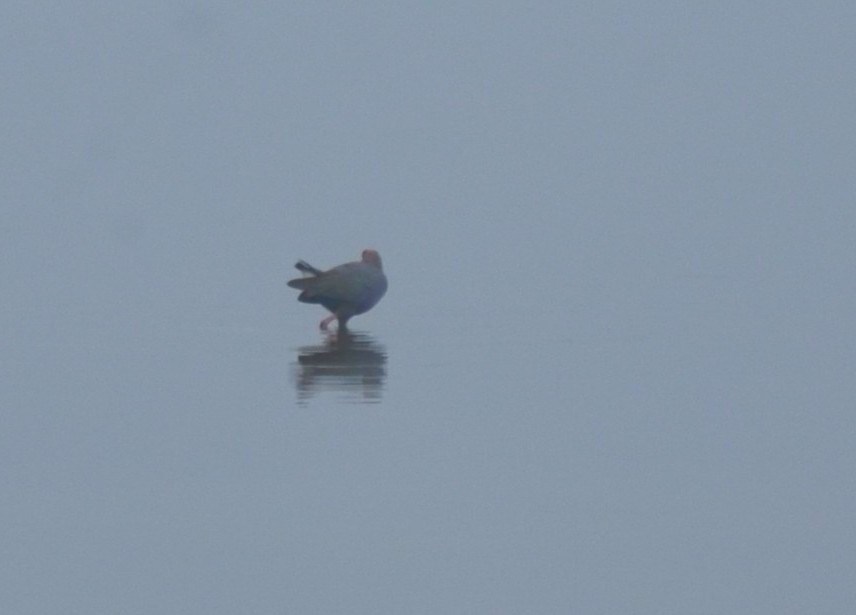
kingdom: Animalia
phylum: Chordata
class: Aves
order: Gruiformes
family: Rallidae
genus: Porphyrio
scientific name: Porphyrio porphyrio
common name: Purple swamphen
